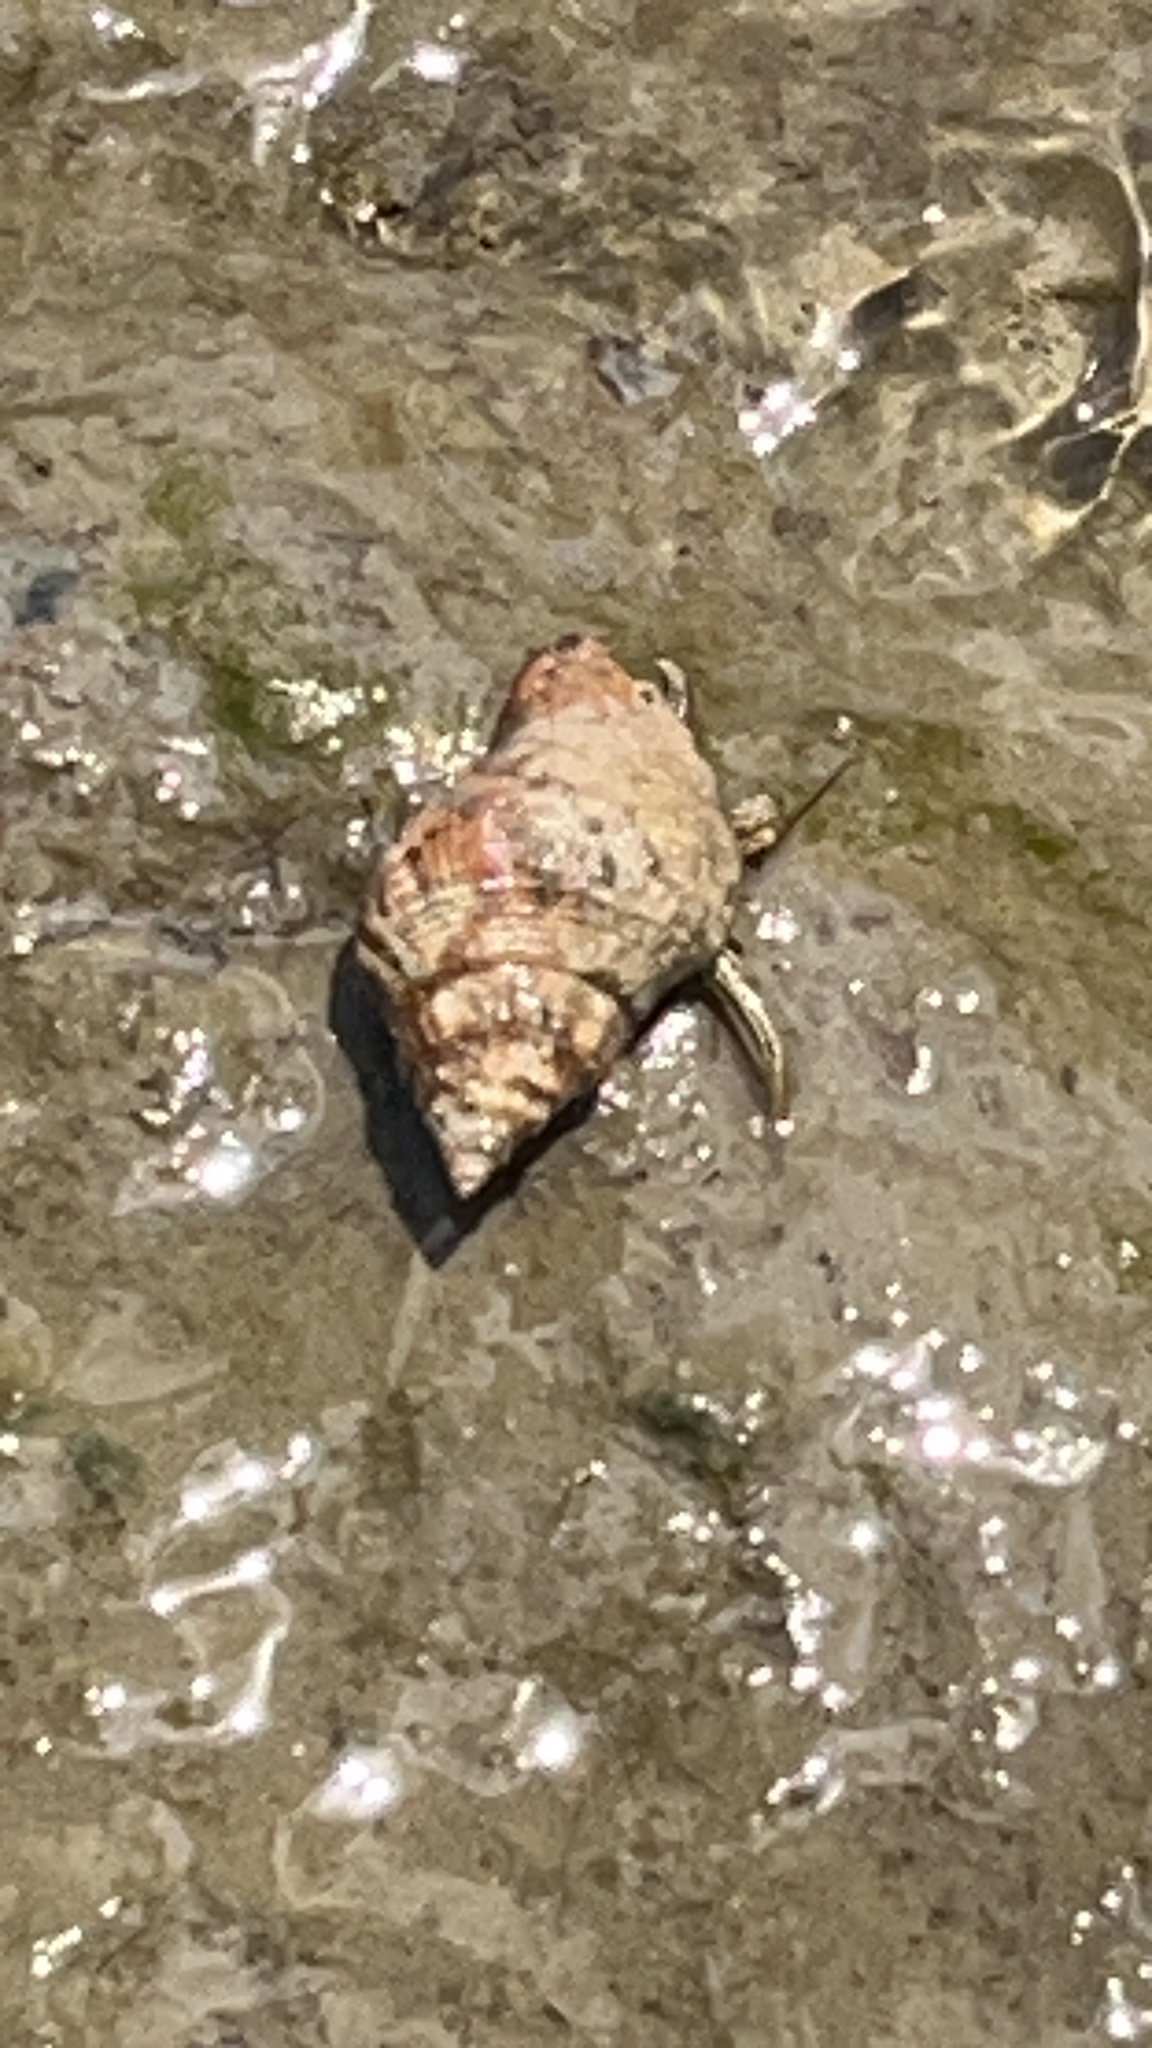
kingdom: Animalia
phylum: Arthropoda
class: Malacostraca
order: Decapoda
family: Diogenidae
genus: Clibanarius
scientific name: Clibanarius vittatus
